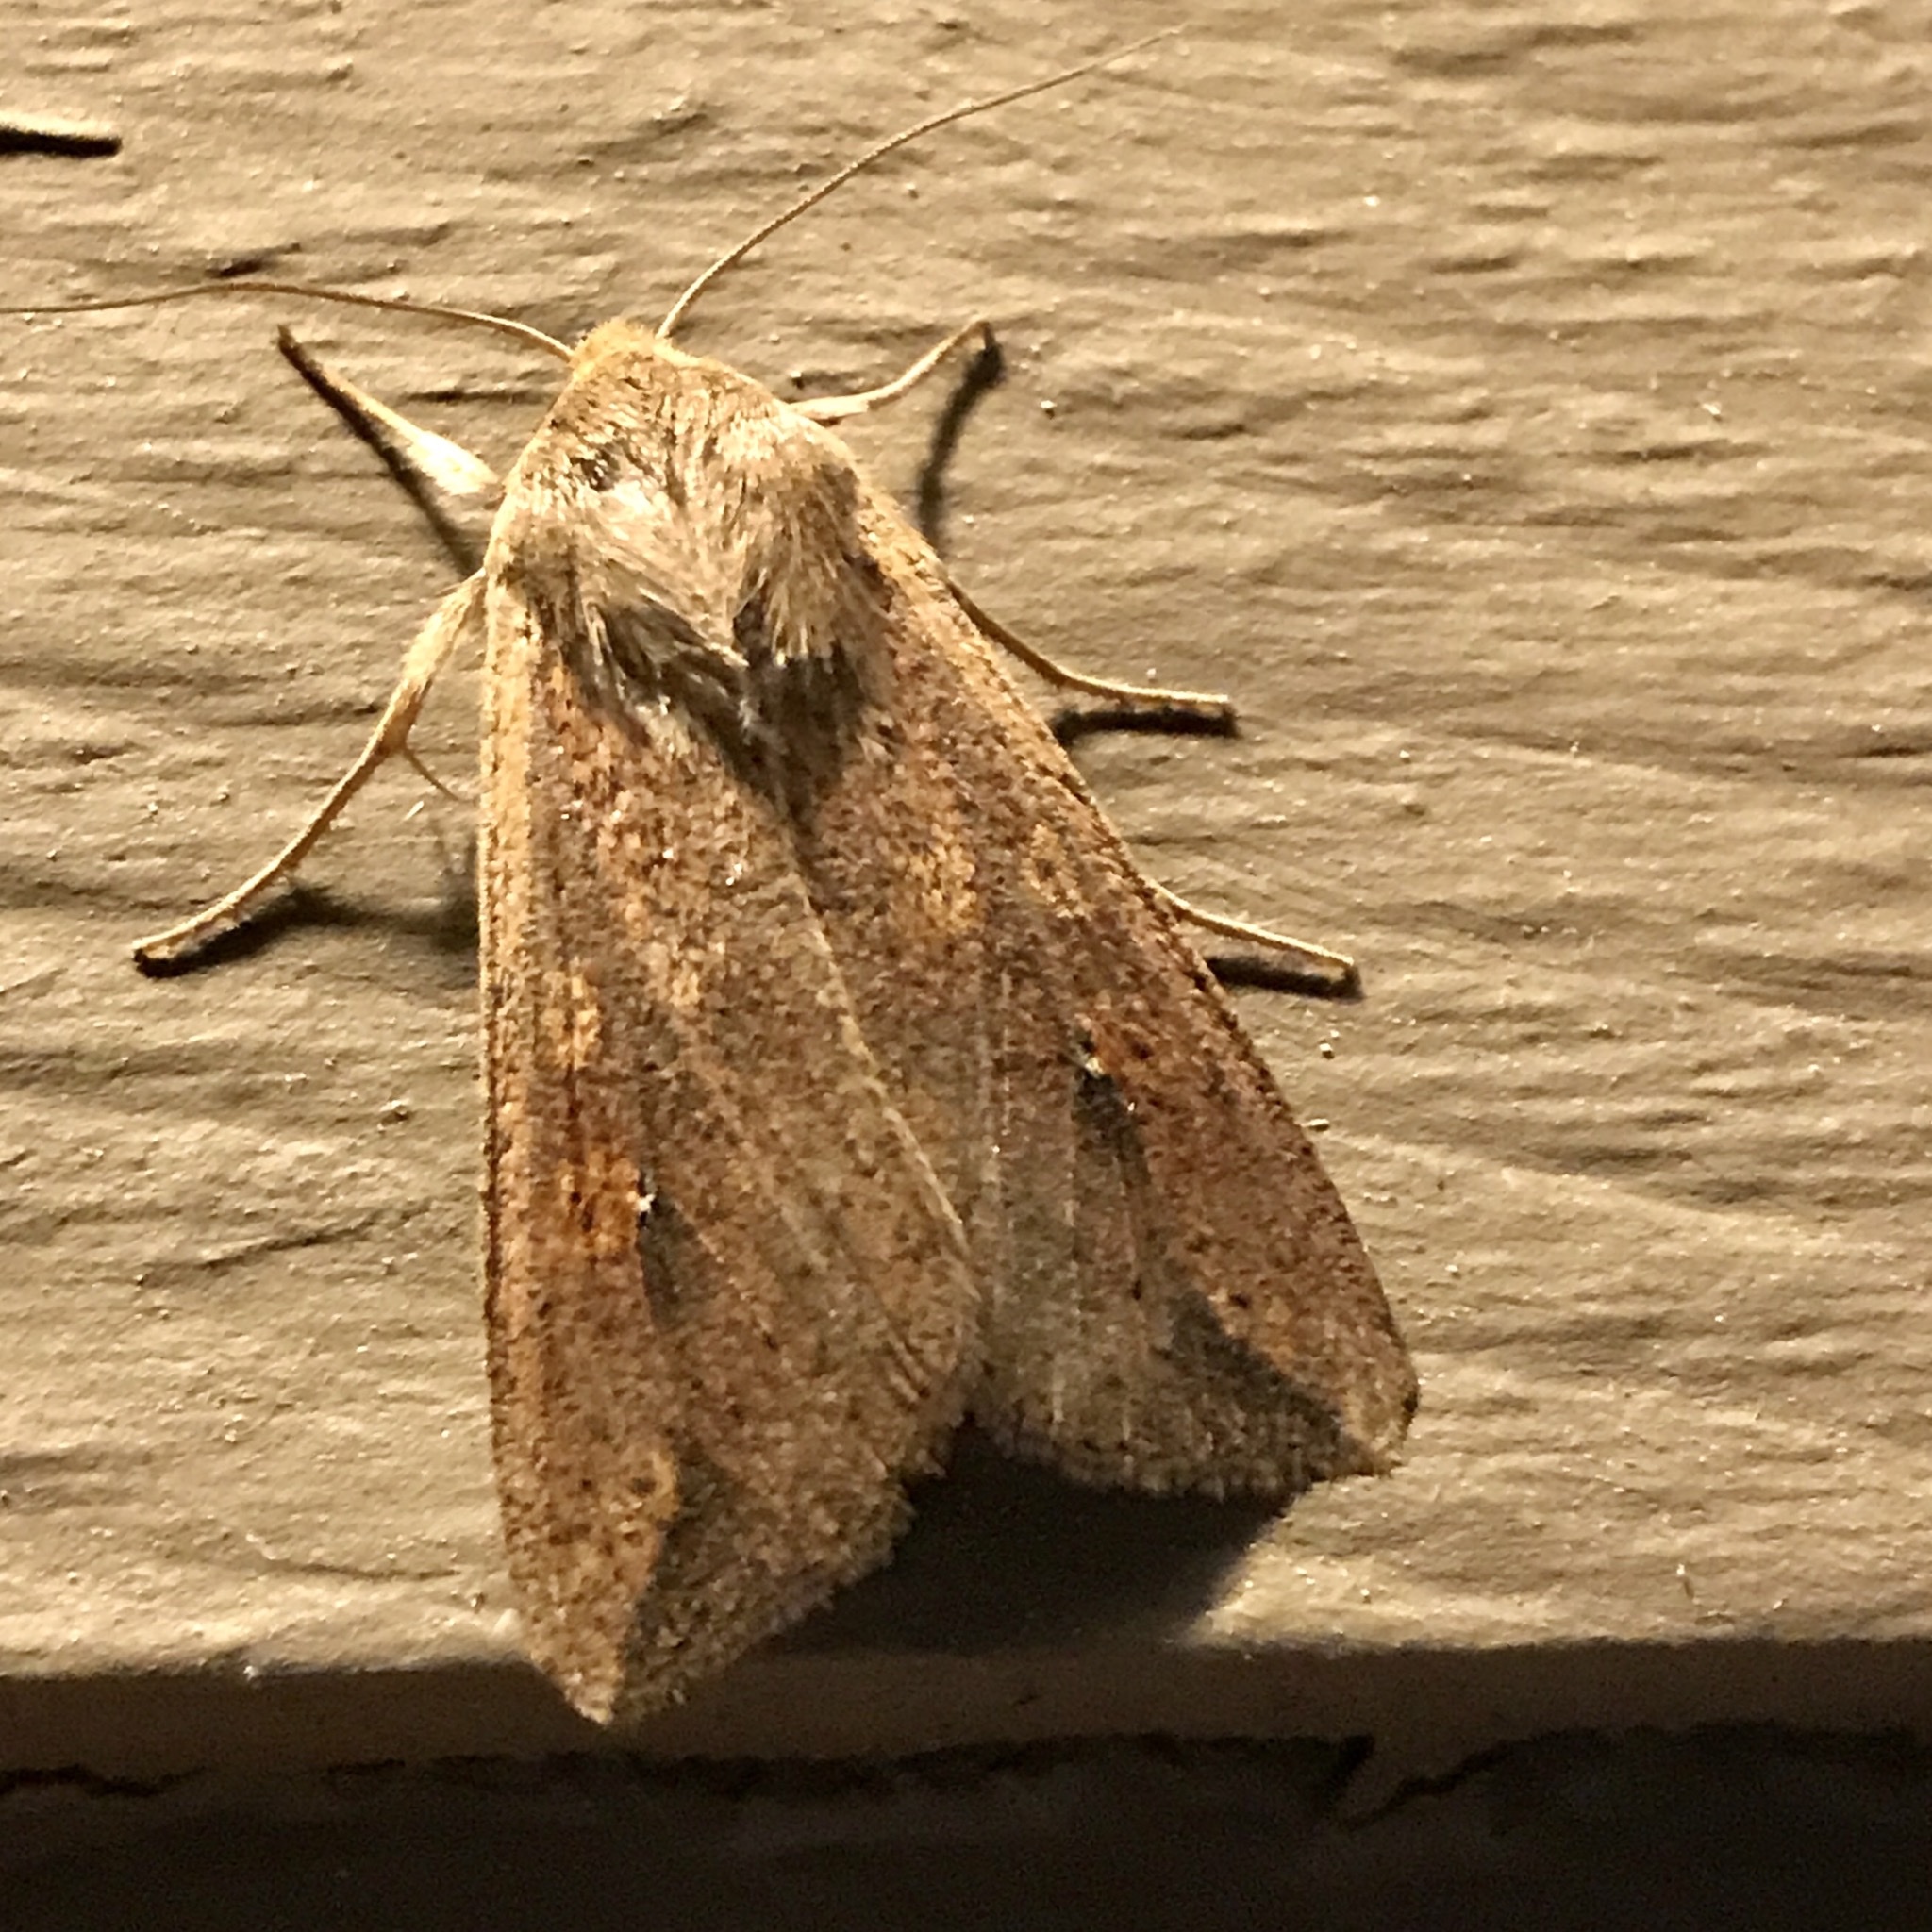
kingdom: Animalia
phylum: Arthropoda
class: Insecta
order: Lepidoptera
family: Noctuidae
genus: Mythimna
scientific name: Mythimna unipuncta
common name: White-speck
